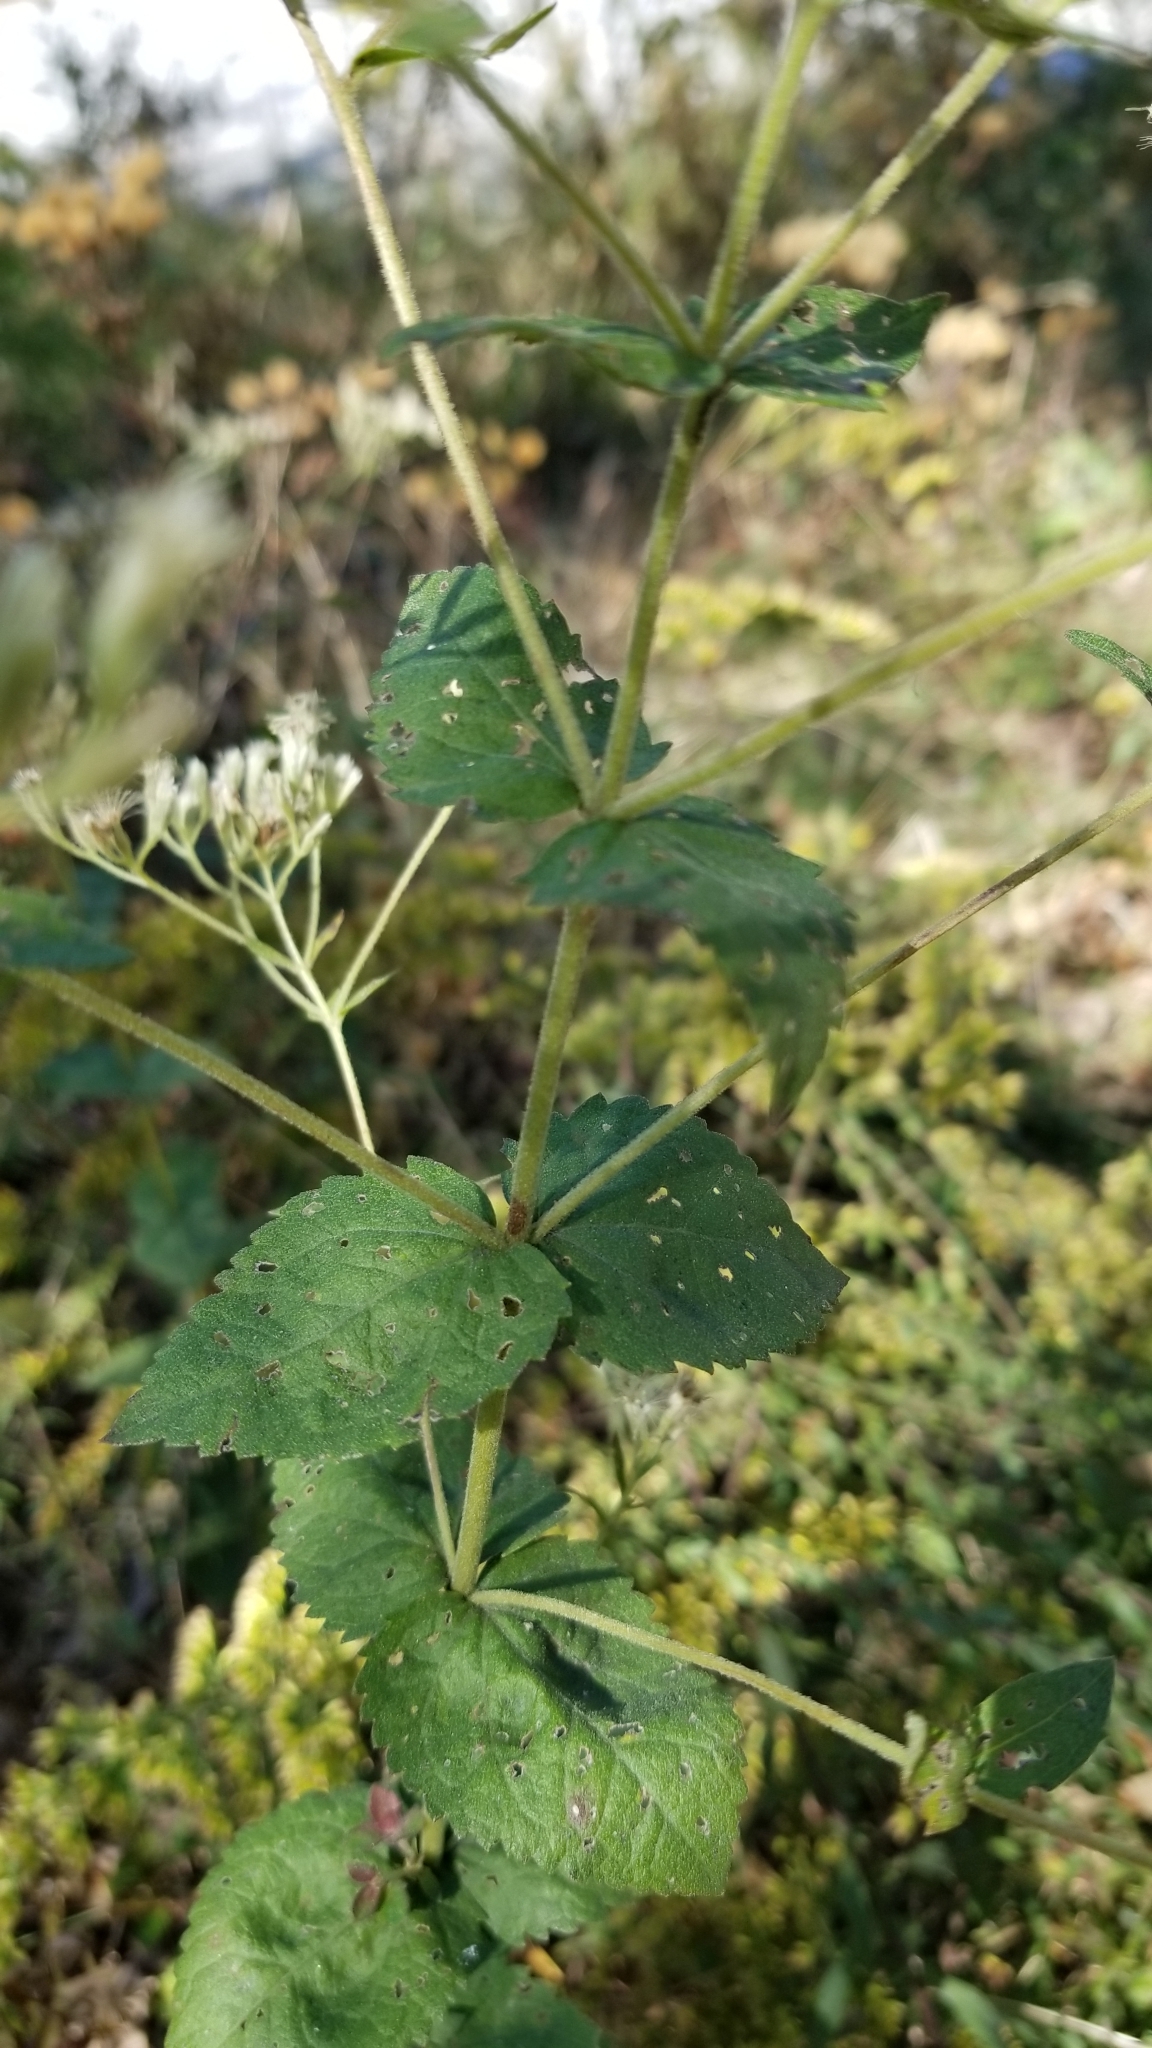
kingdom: Plantae
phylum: Tracheophyta
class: Magnoliopsida
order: Asterales
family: Asteraceae
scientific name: Asteraceae
